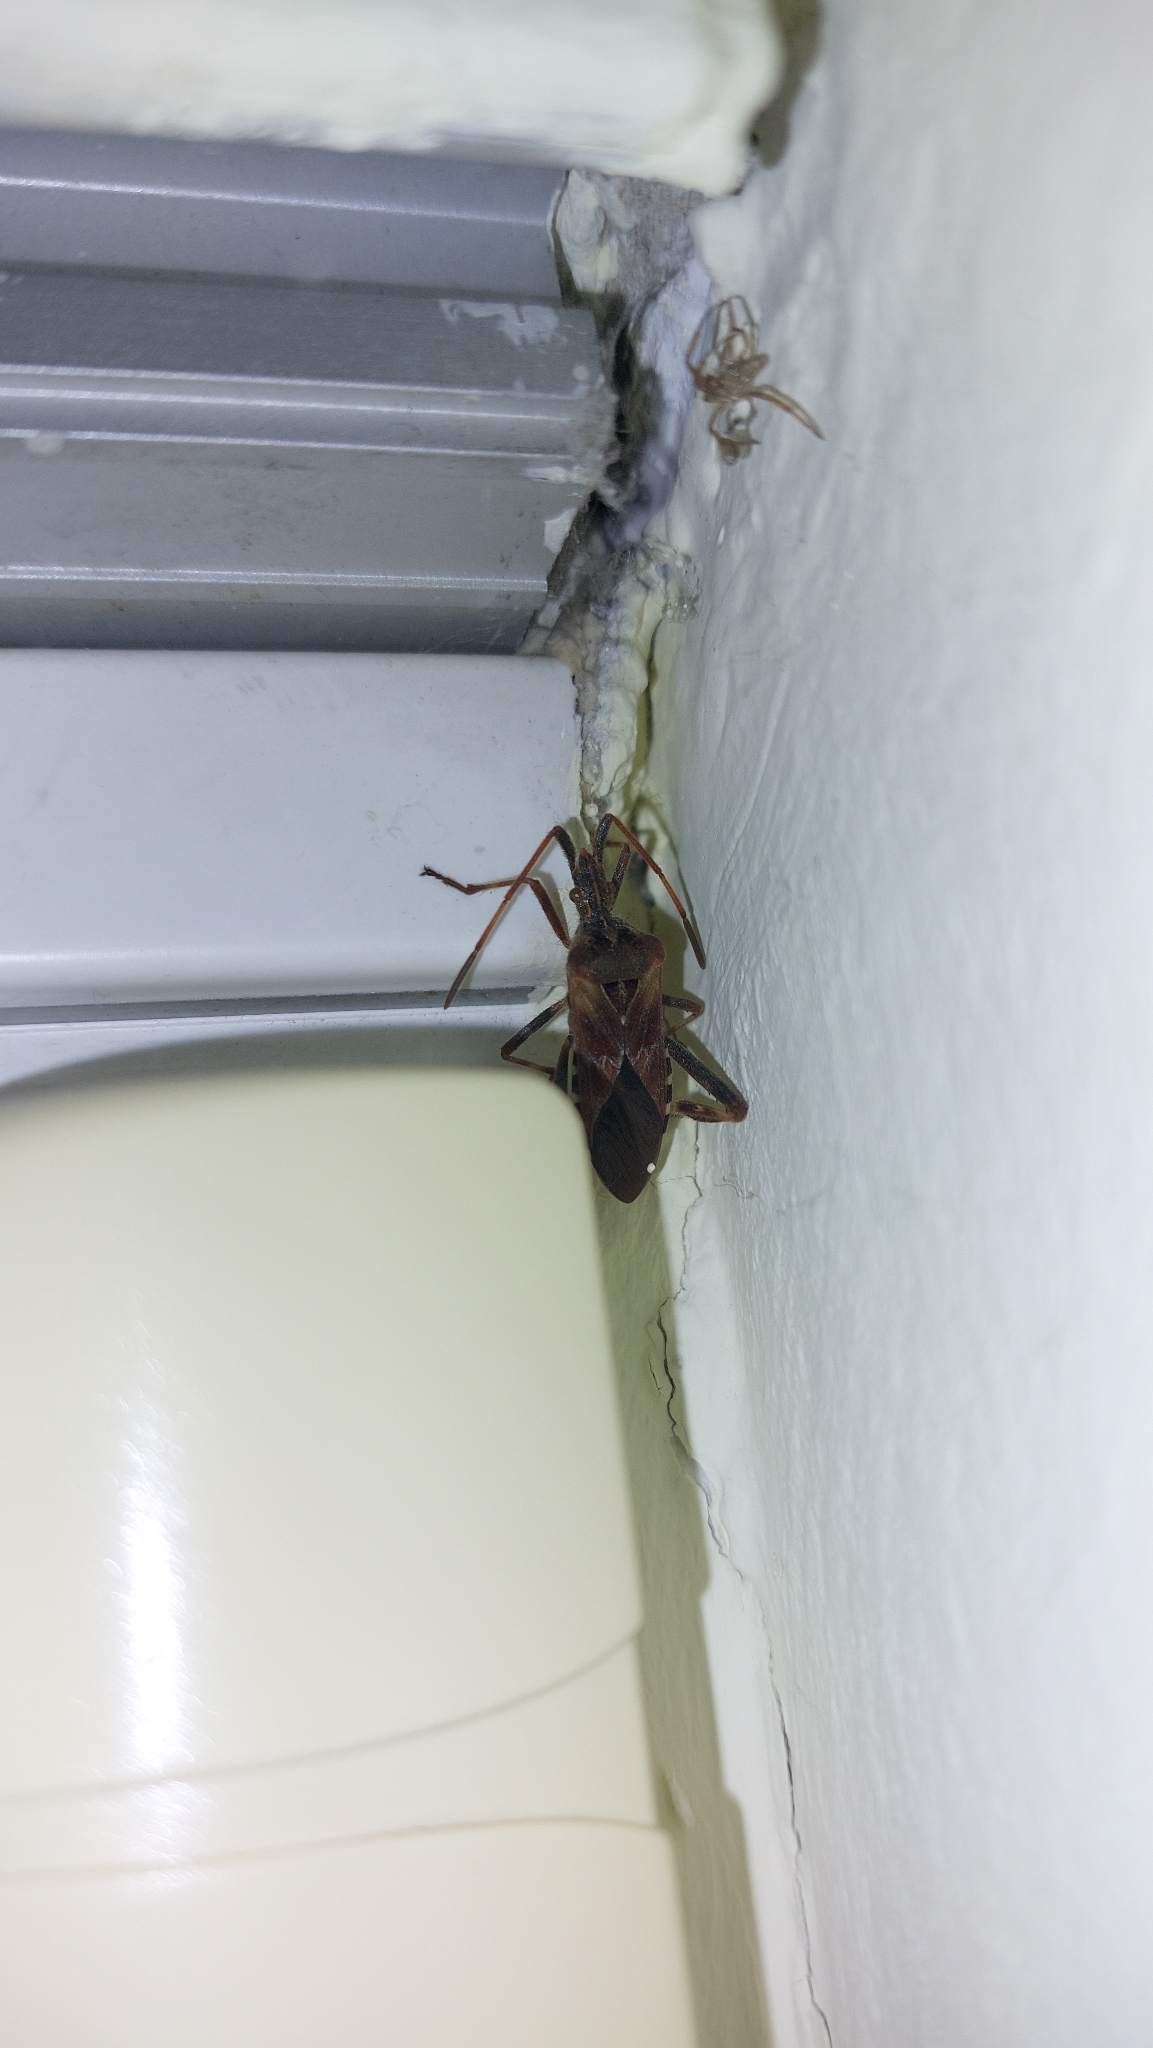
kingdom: Animalia
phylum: Arthropoda
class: Insecta
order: Hemiptera
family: Coreidae
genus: Leptoglossus
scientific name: Leptoglossus occidentalis
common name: Western conifer-seed bug
